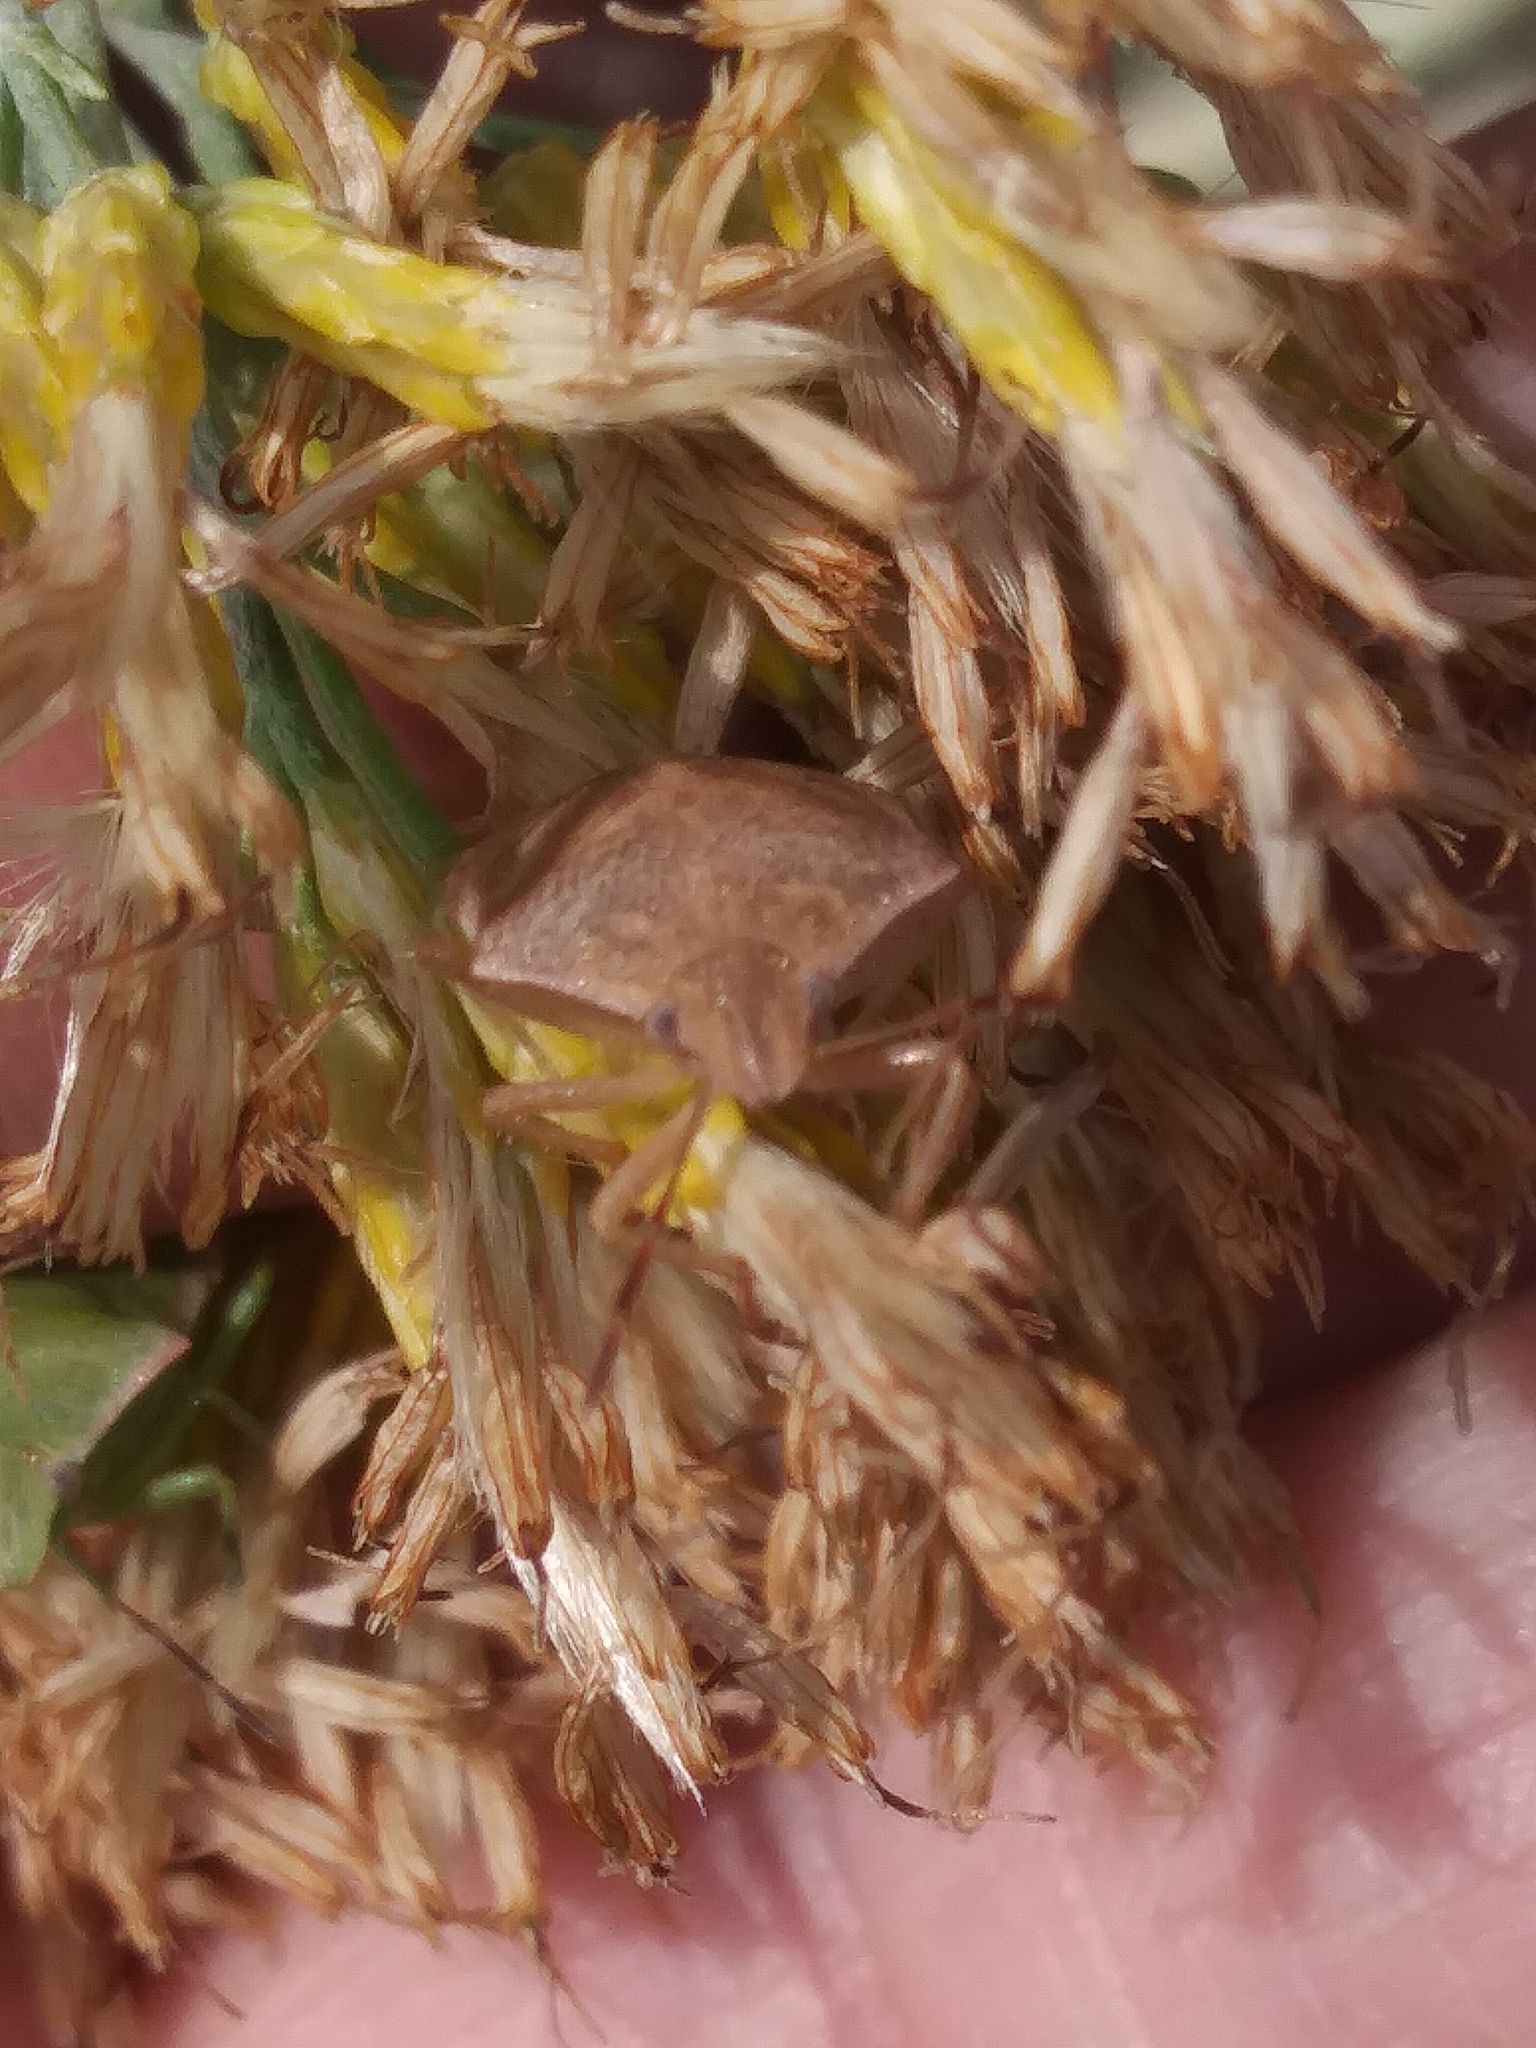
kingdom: Animalia
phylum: Arthropoda
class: Insecta
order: Hemiptera
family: Pentatomidae
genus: Euschistus
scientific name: Euschistus servus
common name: Brown stink bug
